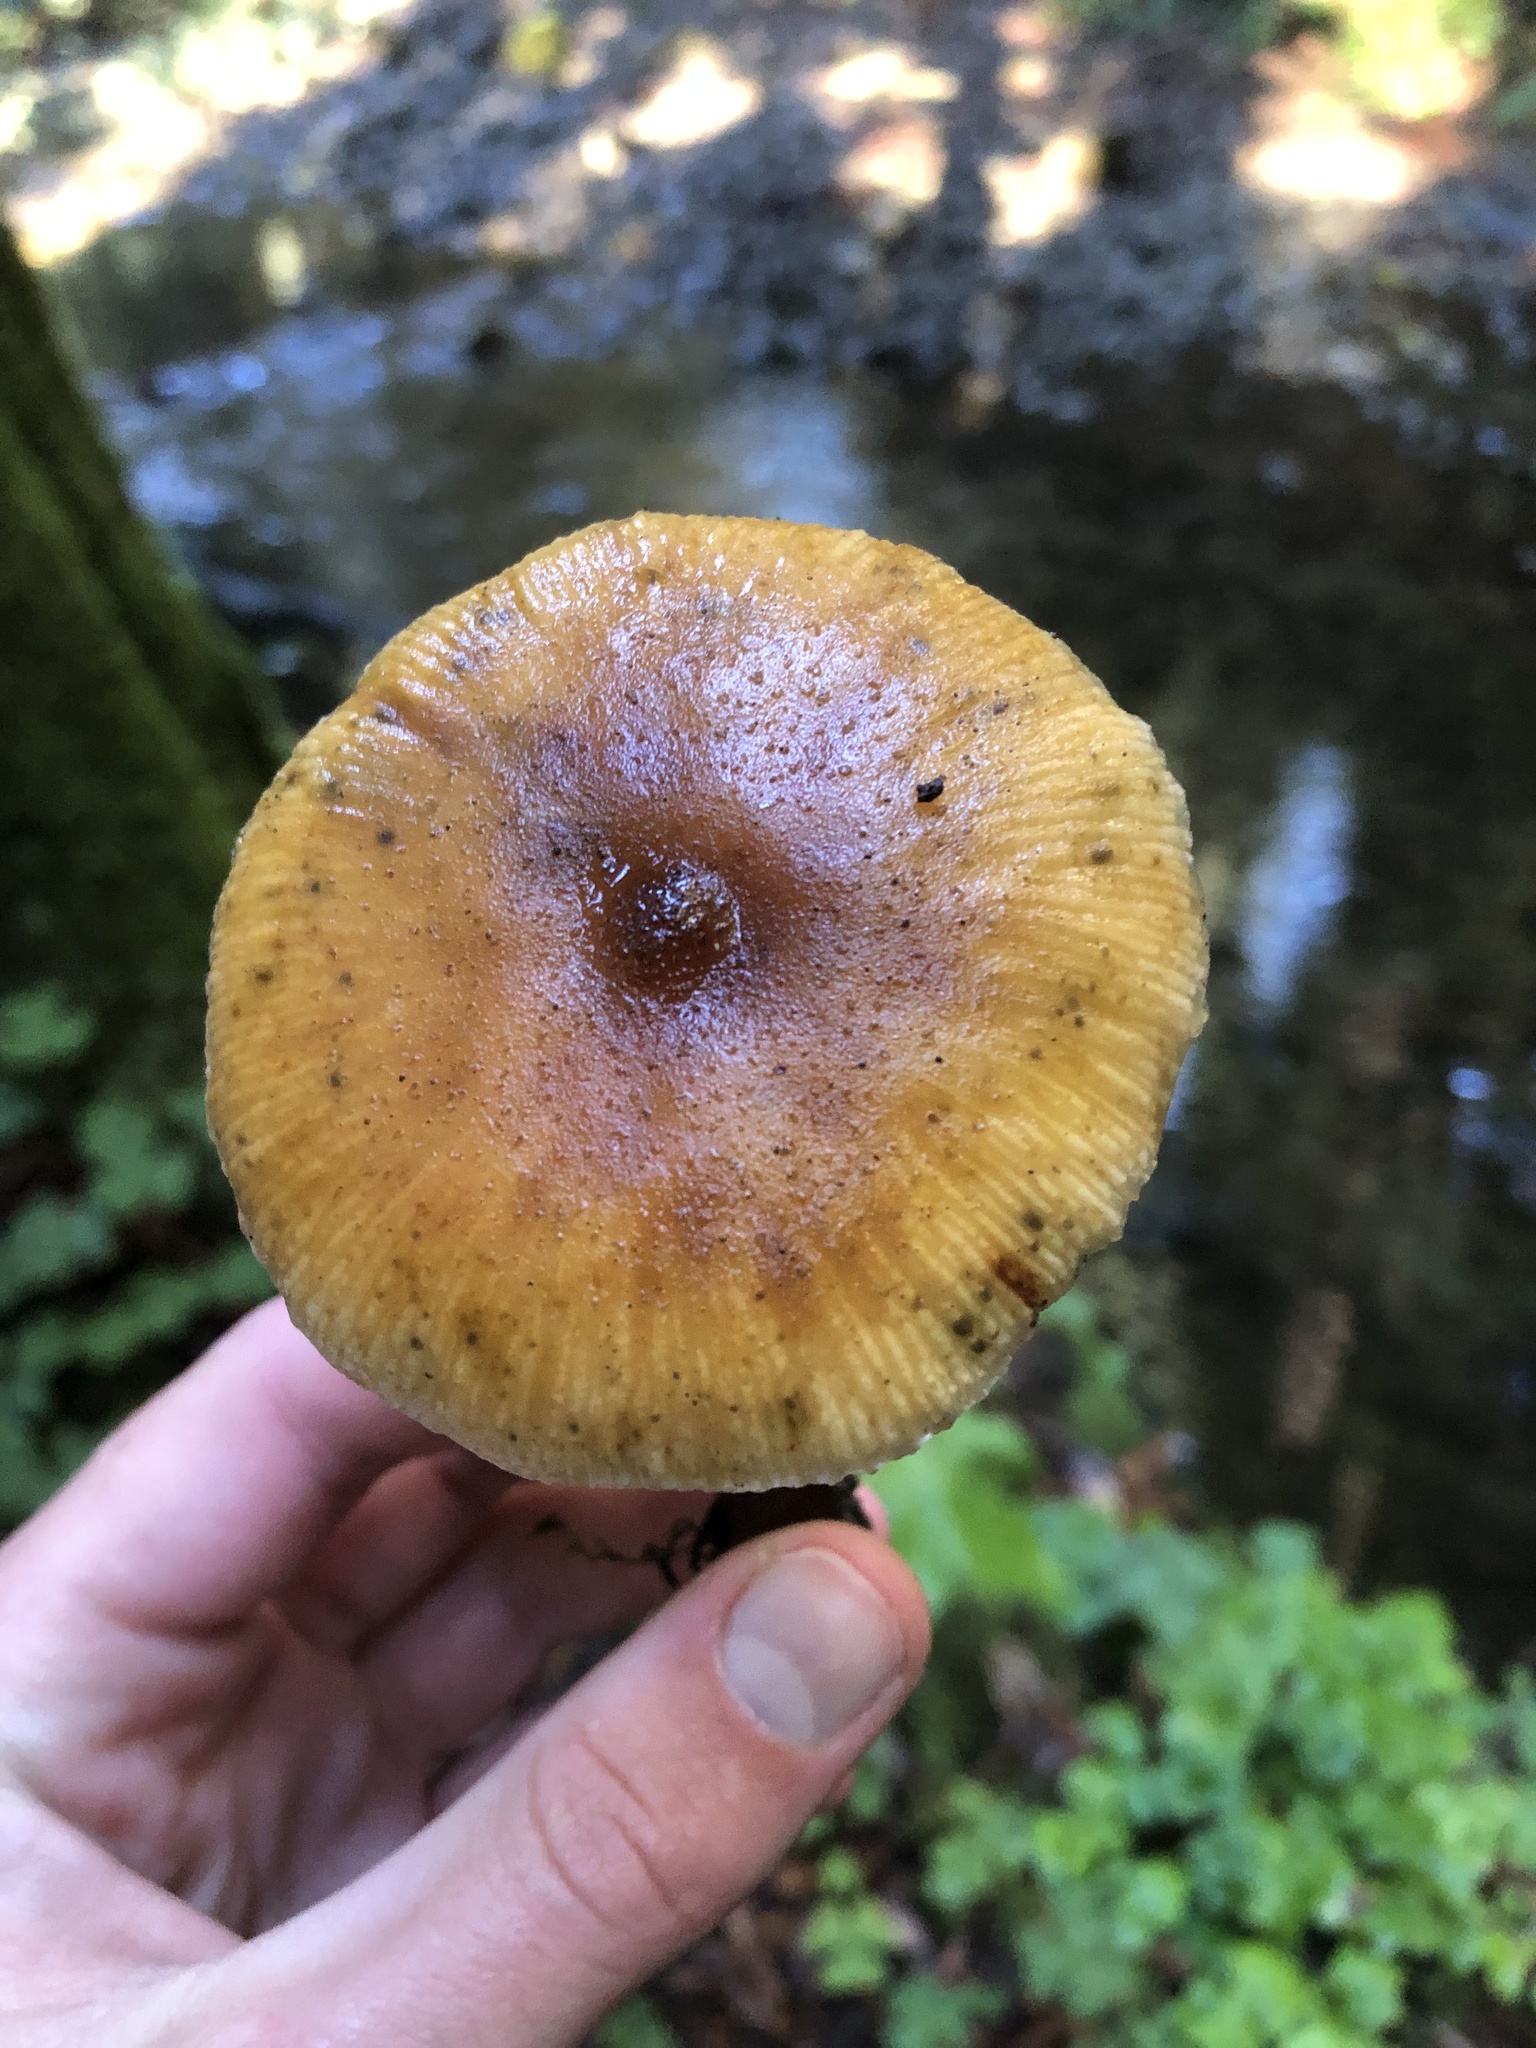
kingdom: Fungi
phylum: Basidiomycota
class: Agaricomycetes
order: Agaricales
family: Physalacriaceae
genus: Armillaria
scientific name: Armillaria sinapina
